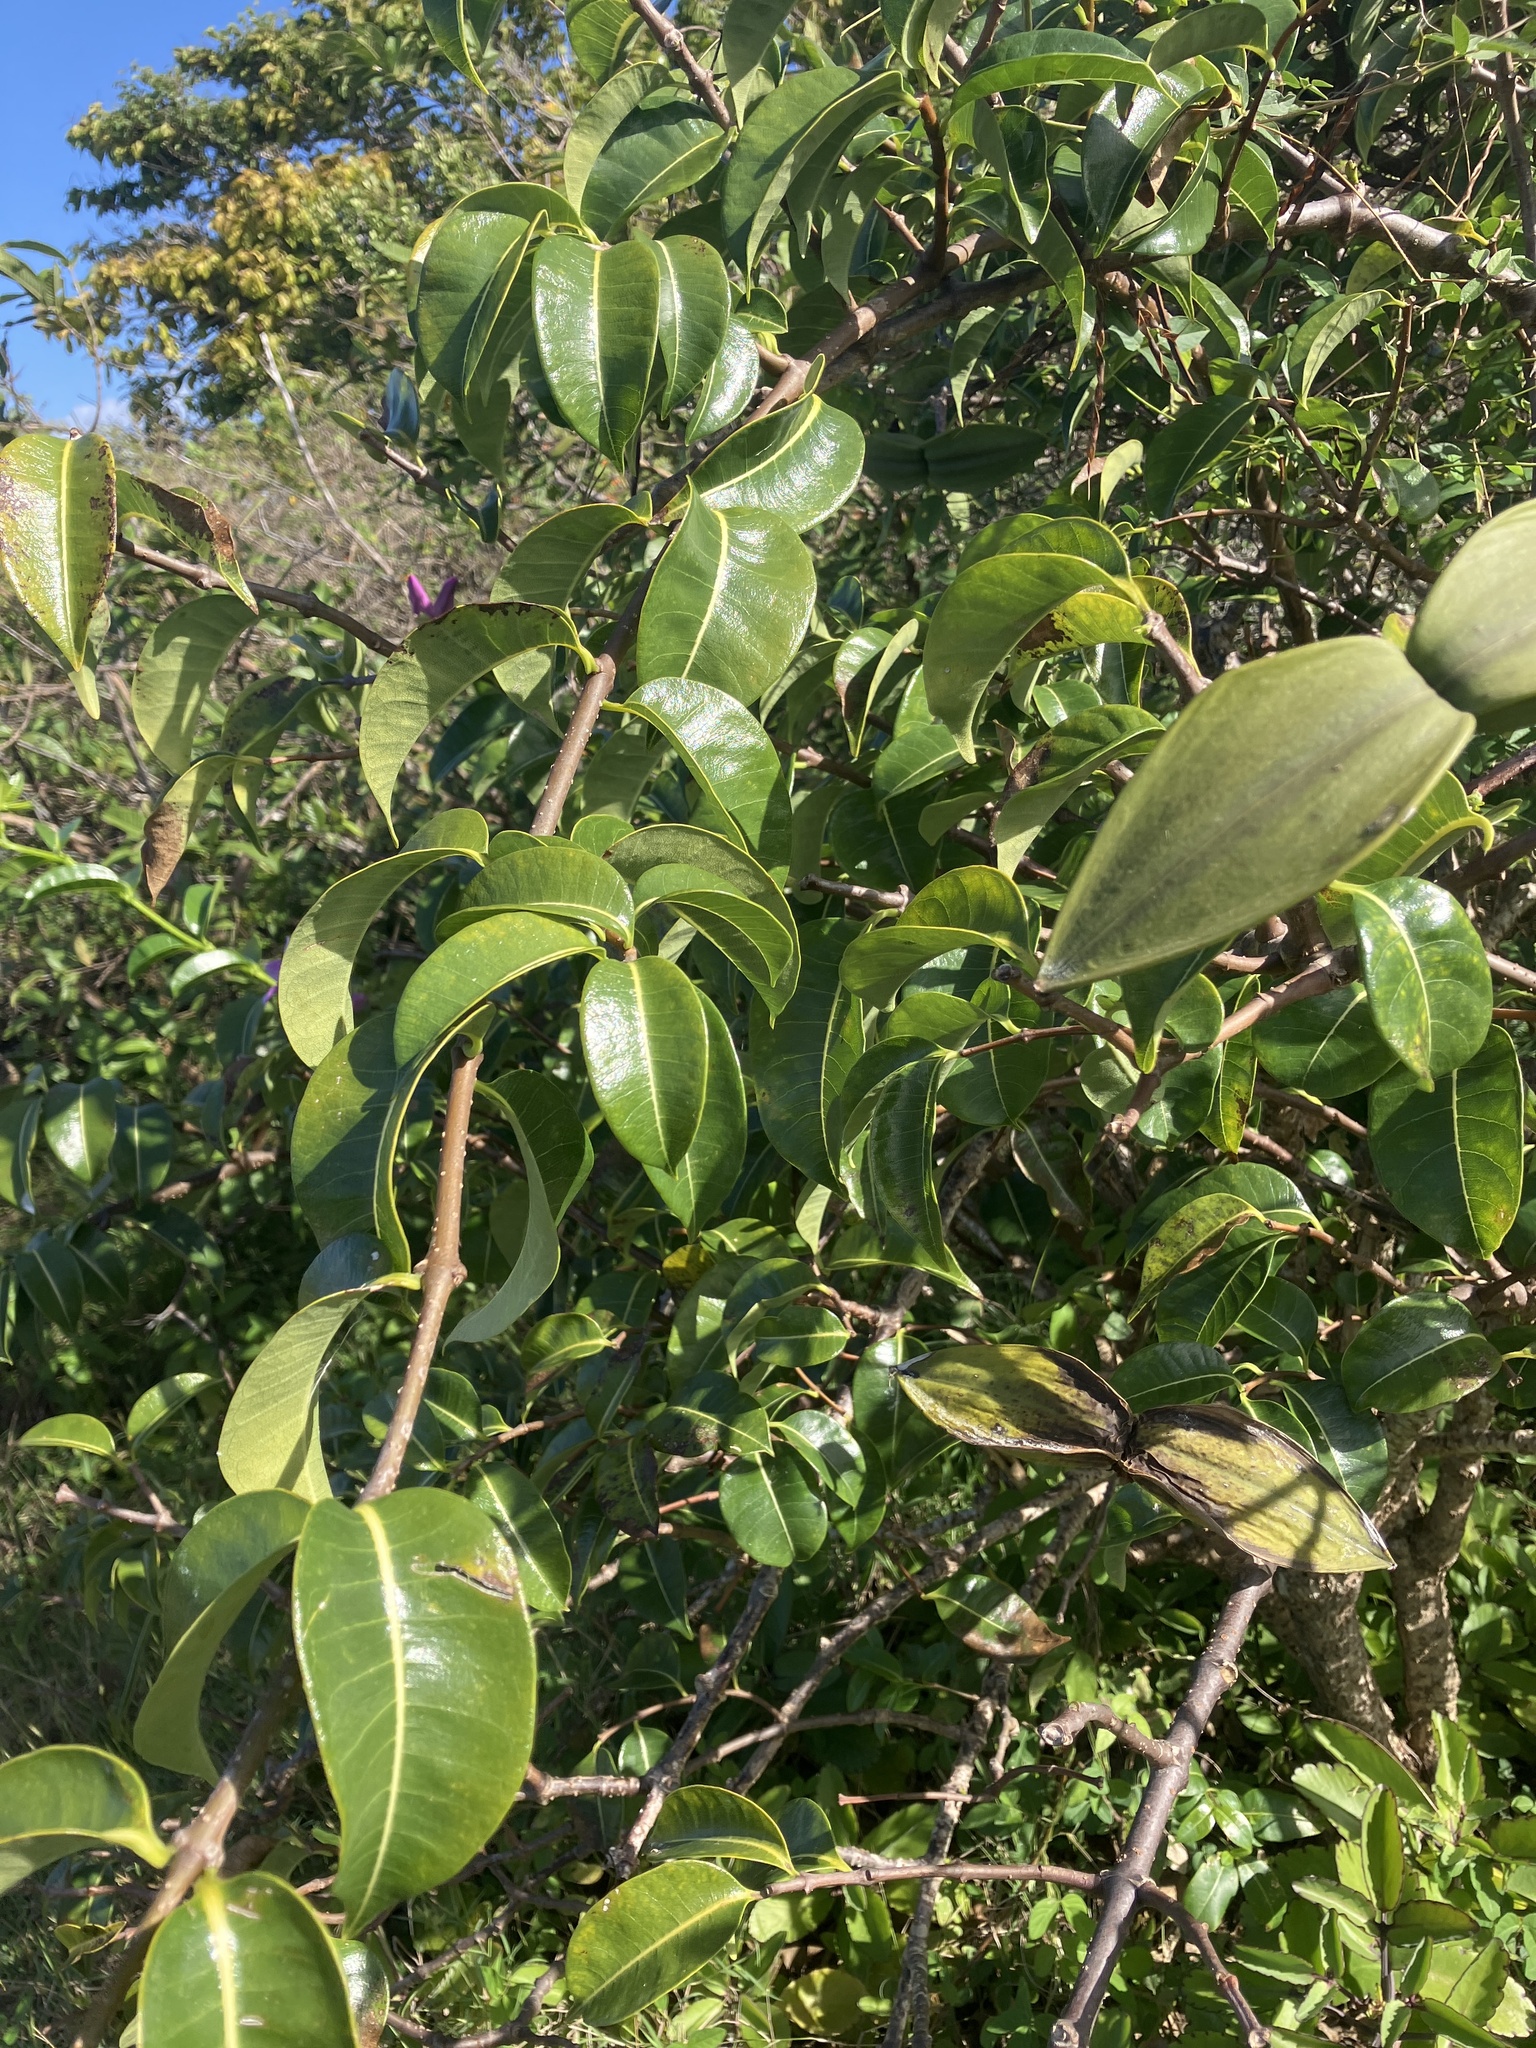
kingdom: Plantae
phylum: Tracheophyta
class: Magnoliopsida
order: Gentianales
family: Apocynaceae
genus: Cryptostegia
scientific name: Cryptostegia madagascariensis
